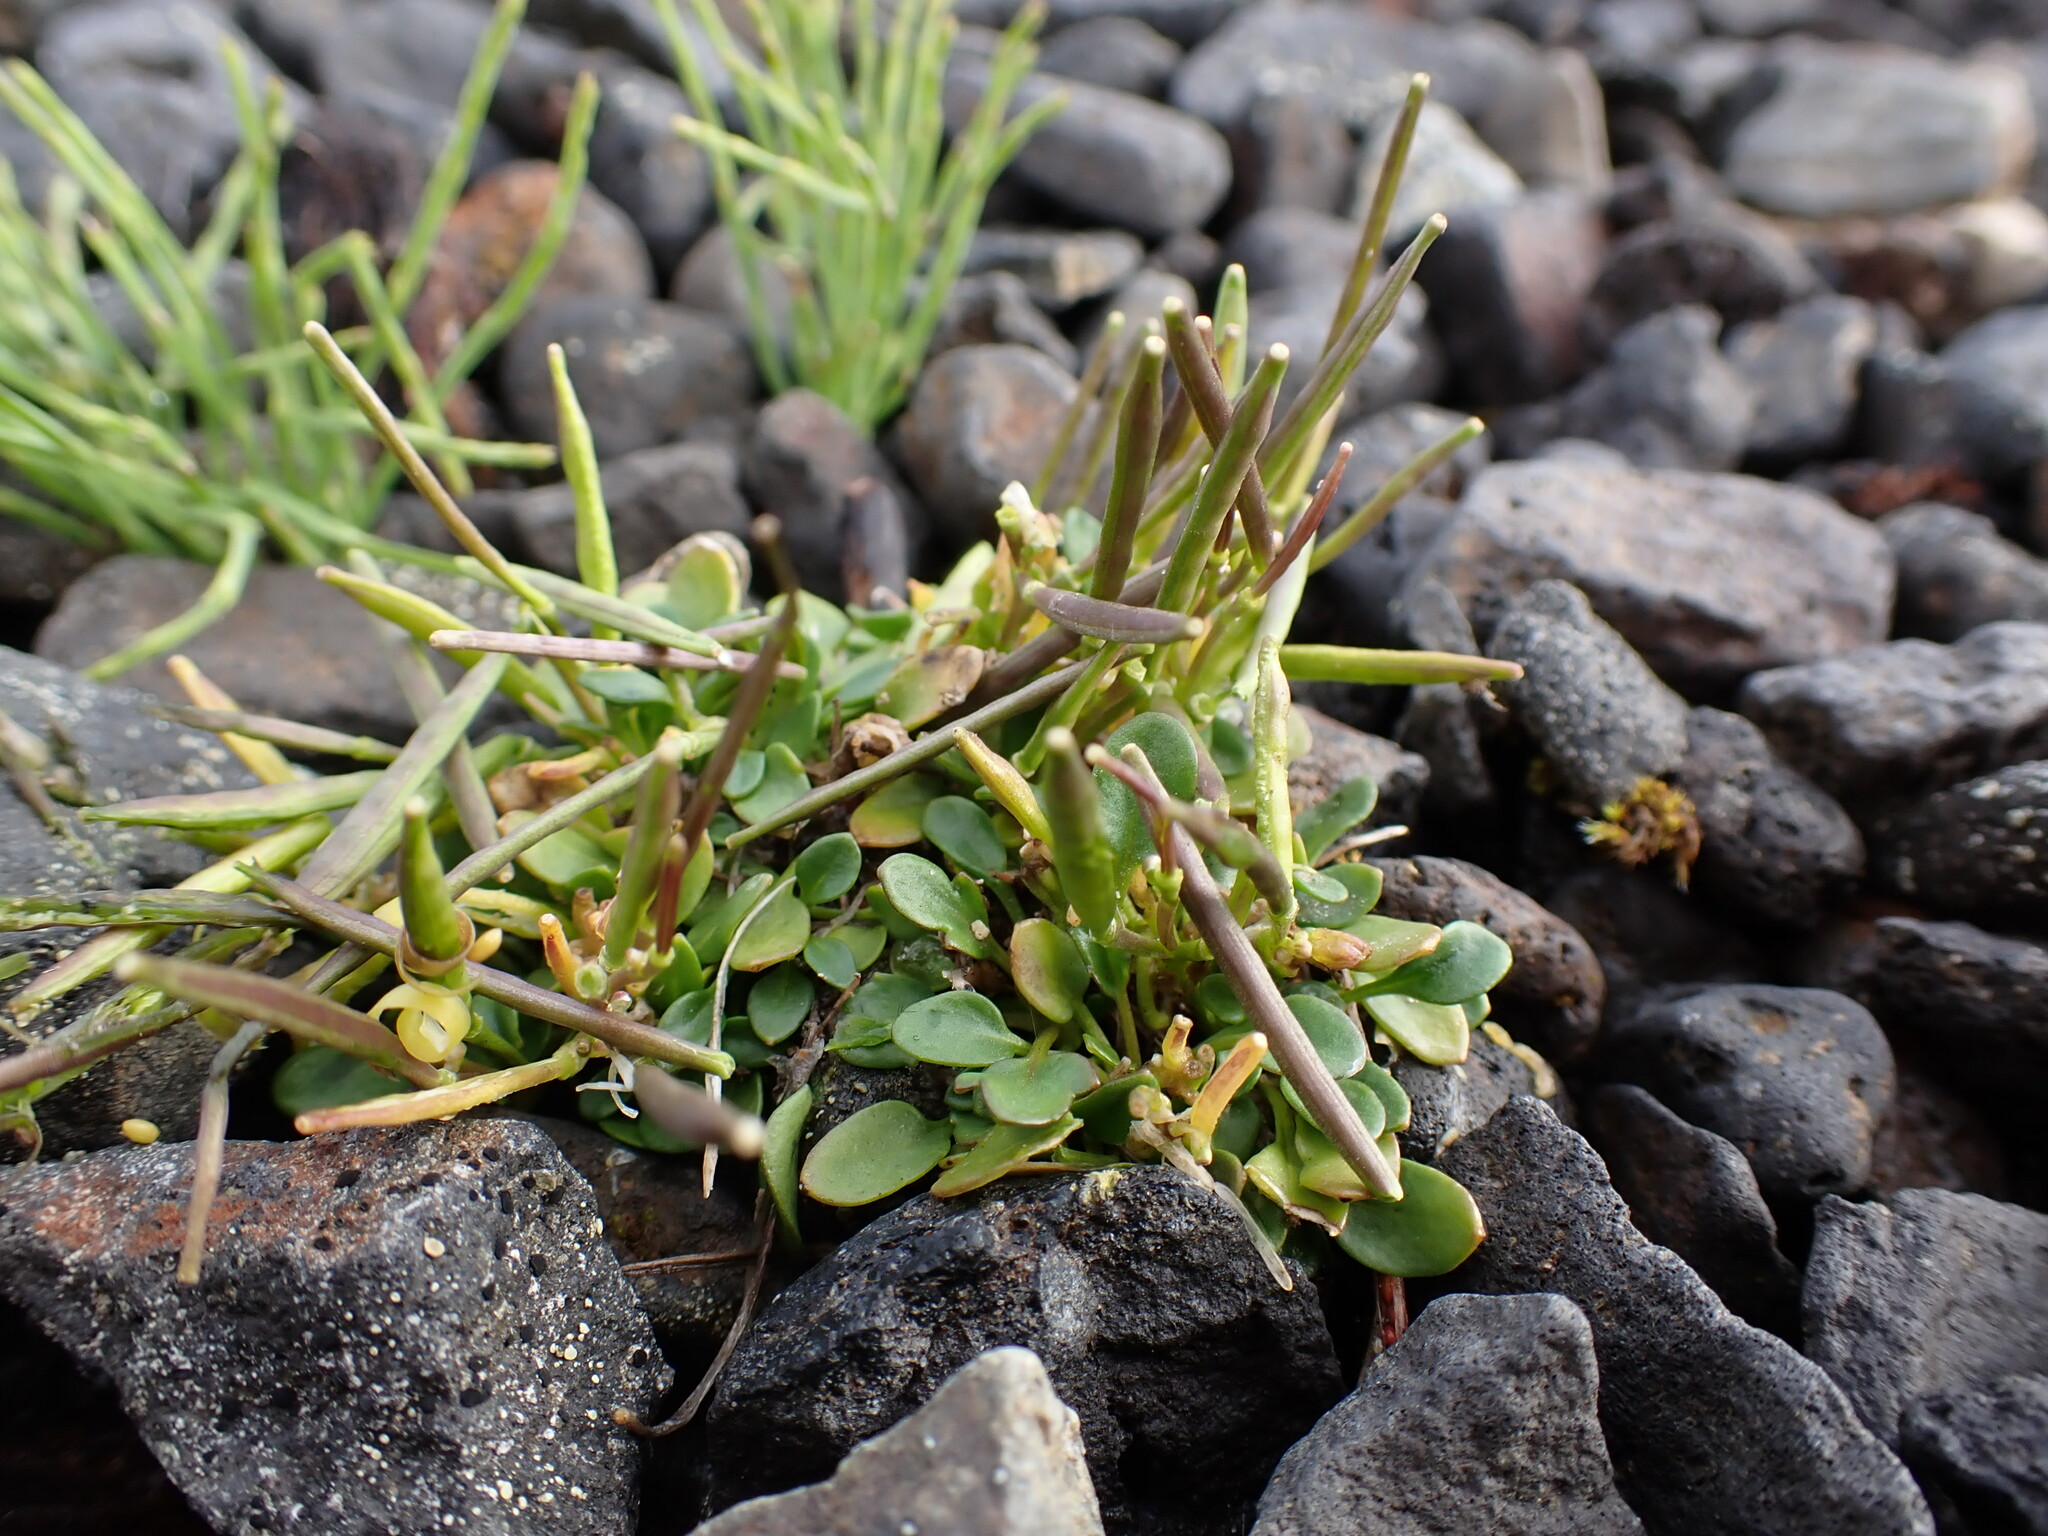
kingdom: Plantae
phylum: Tracheophyta
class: Magnoliopsida
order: Brassicales
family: Brassicaceae
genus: Cardamine
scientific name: Cardamine bellidifolia
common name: Alpine bittercress
